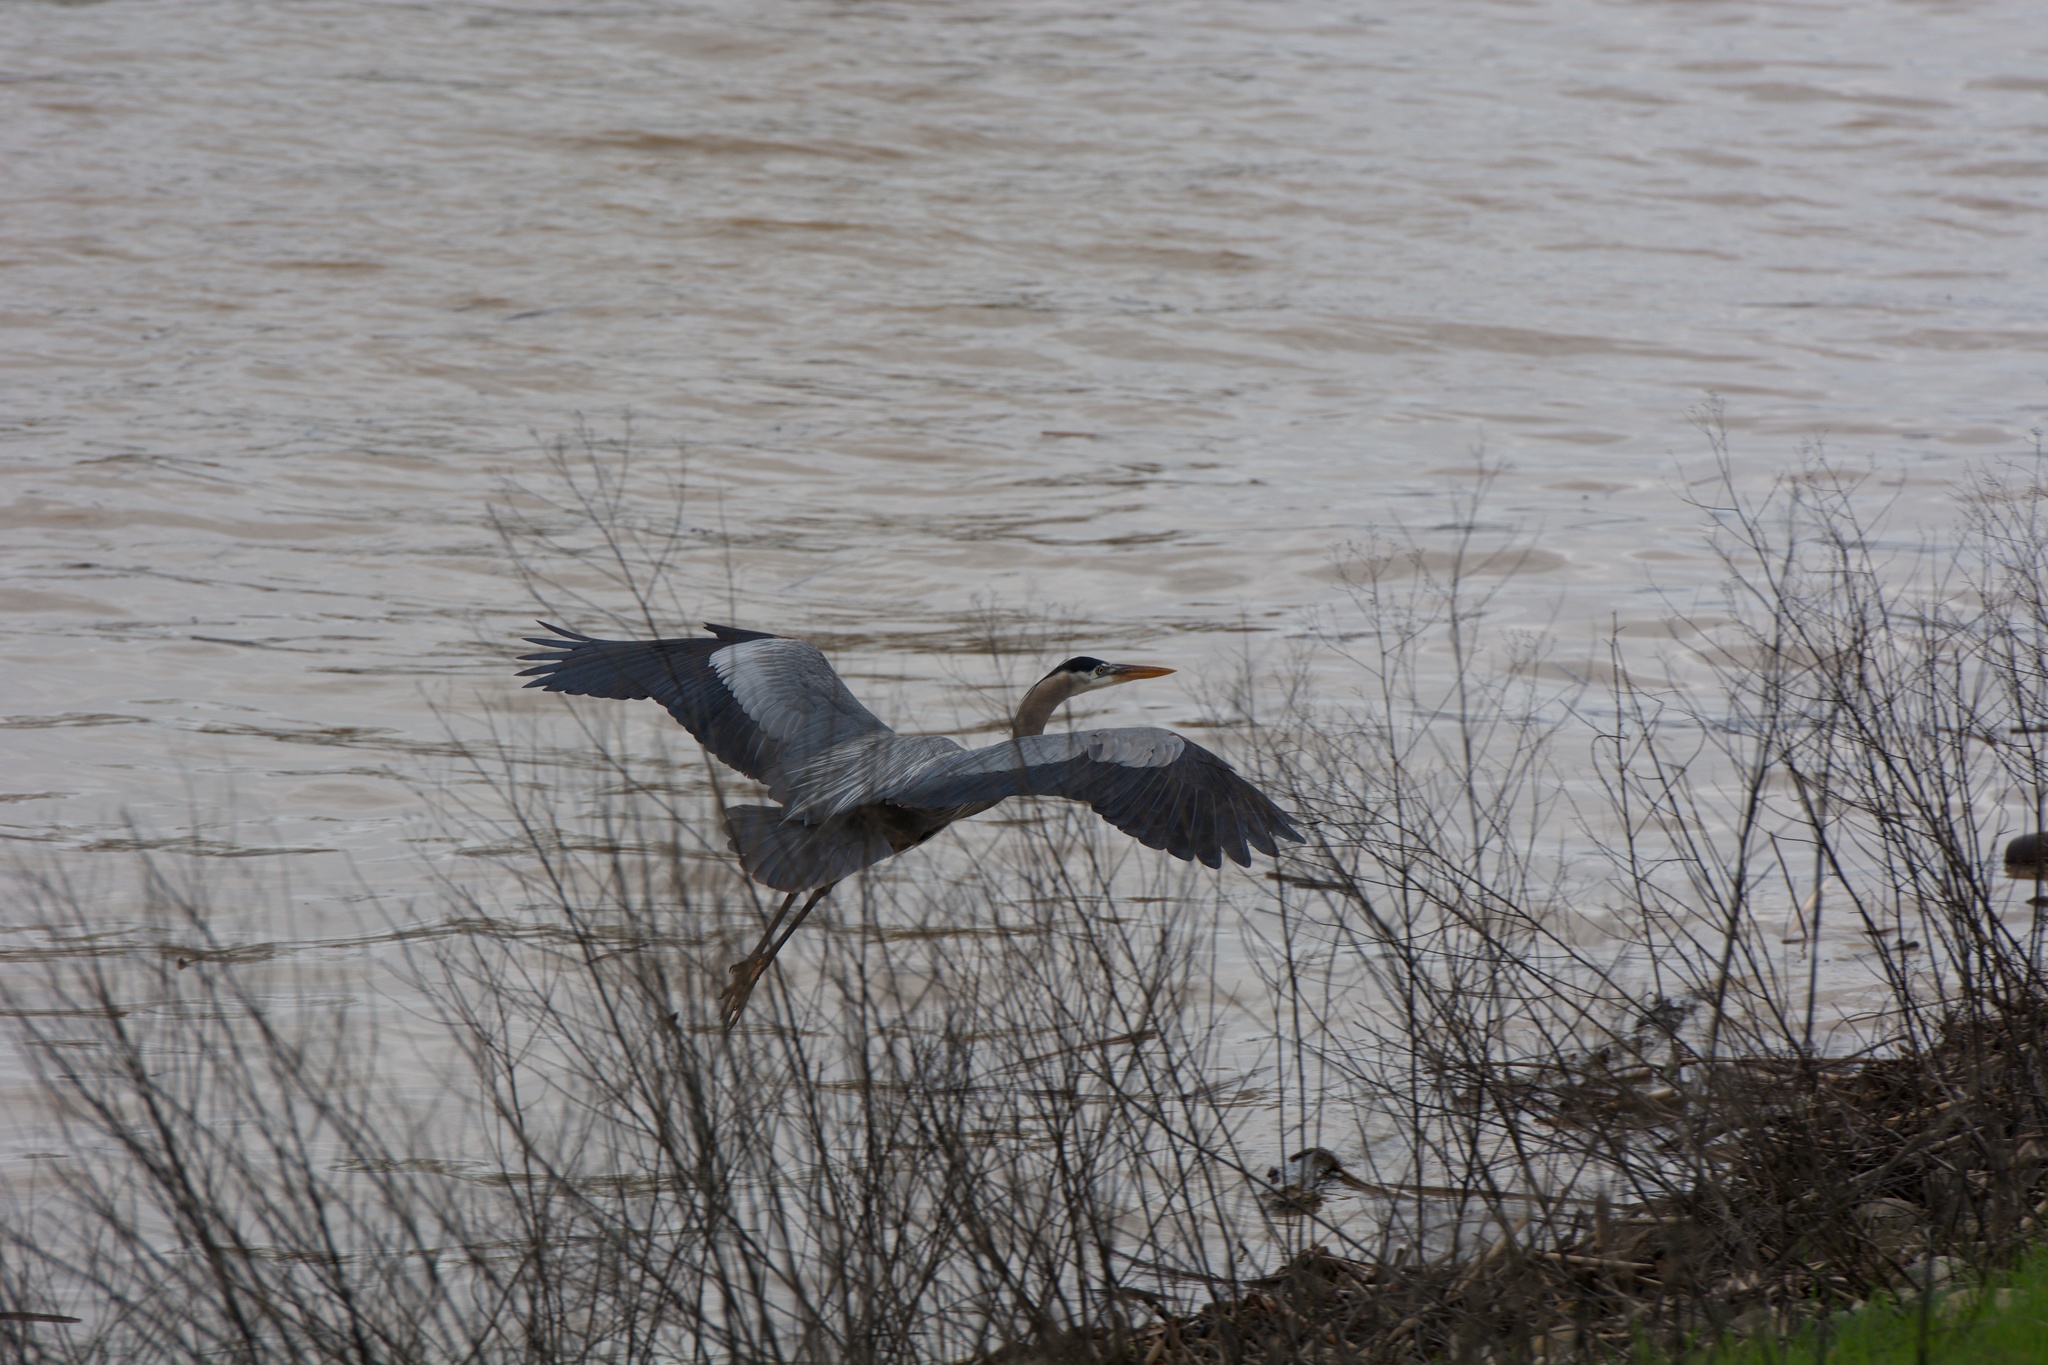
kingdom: Animalia
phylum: Chordata
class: Aves
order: Pelecaniformes
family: Ardeidae
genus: Ardea
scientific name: Ardea herodias
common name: Great blue heron
